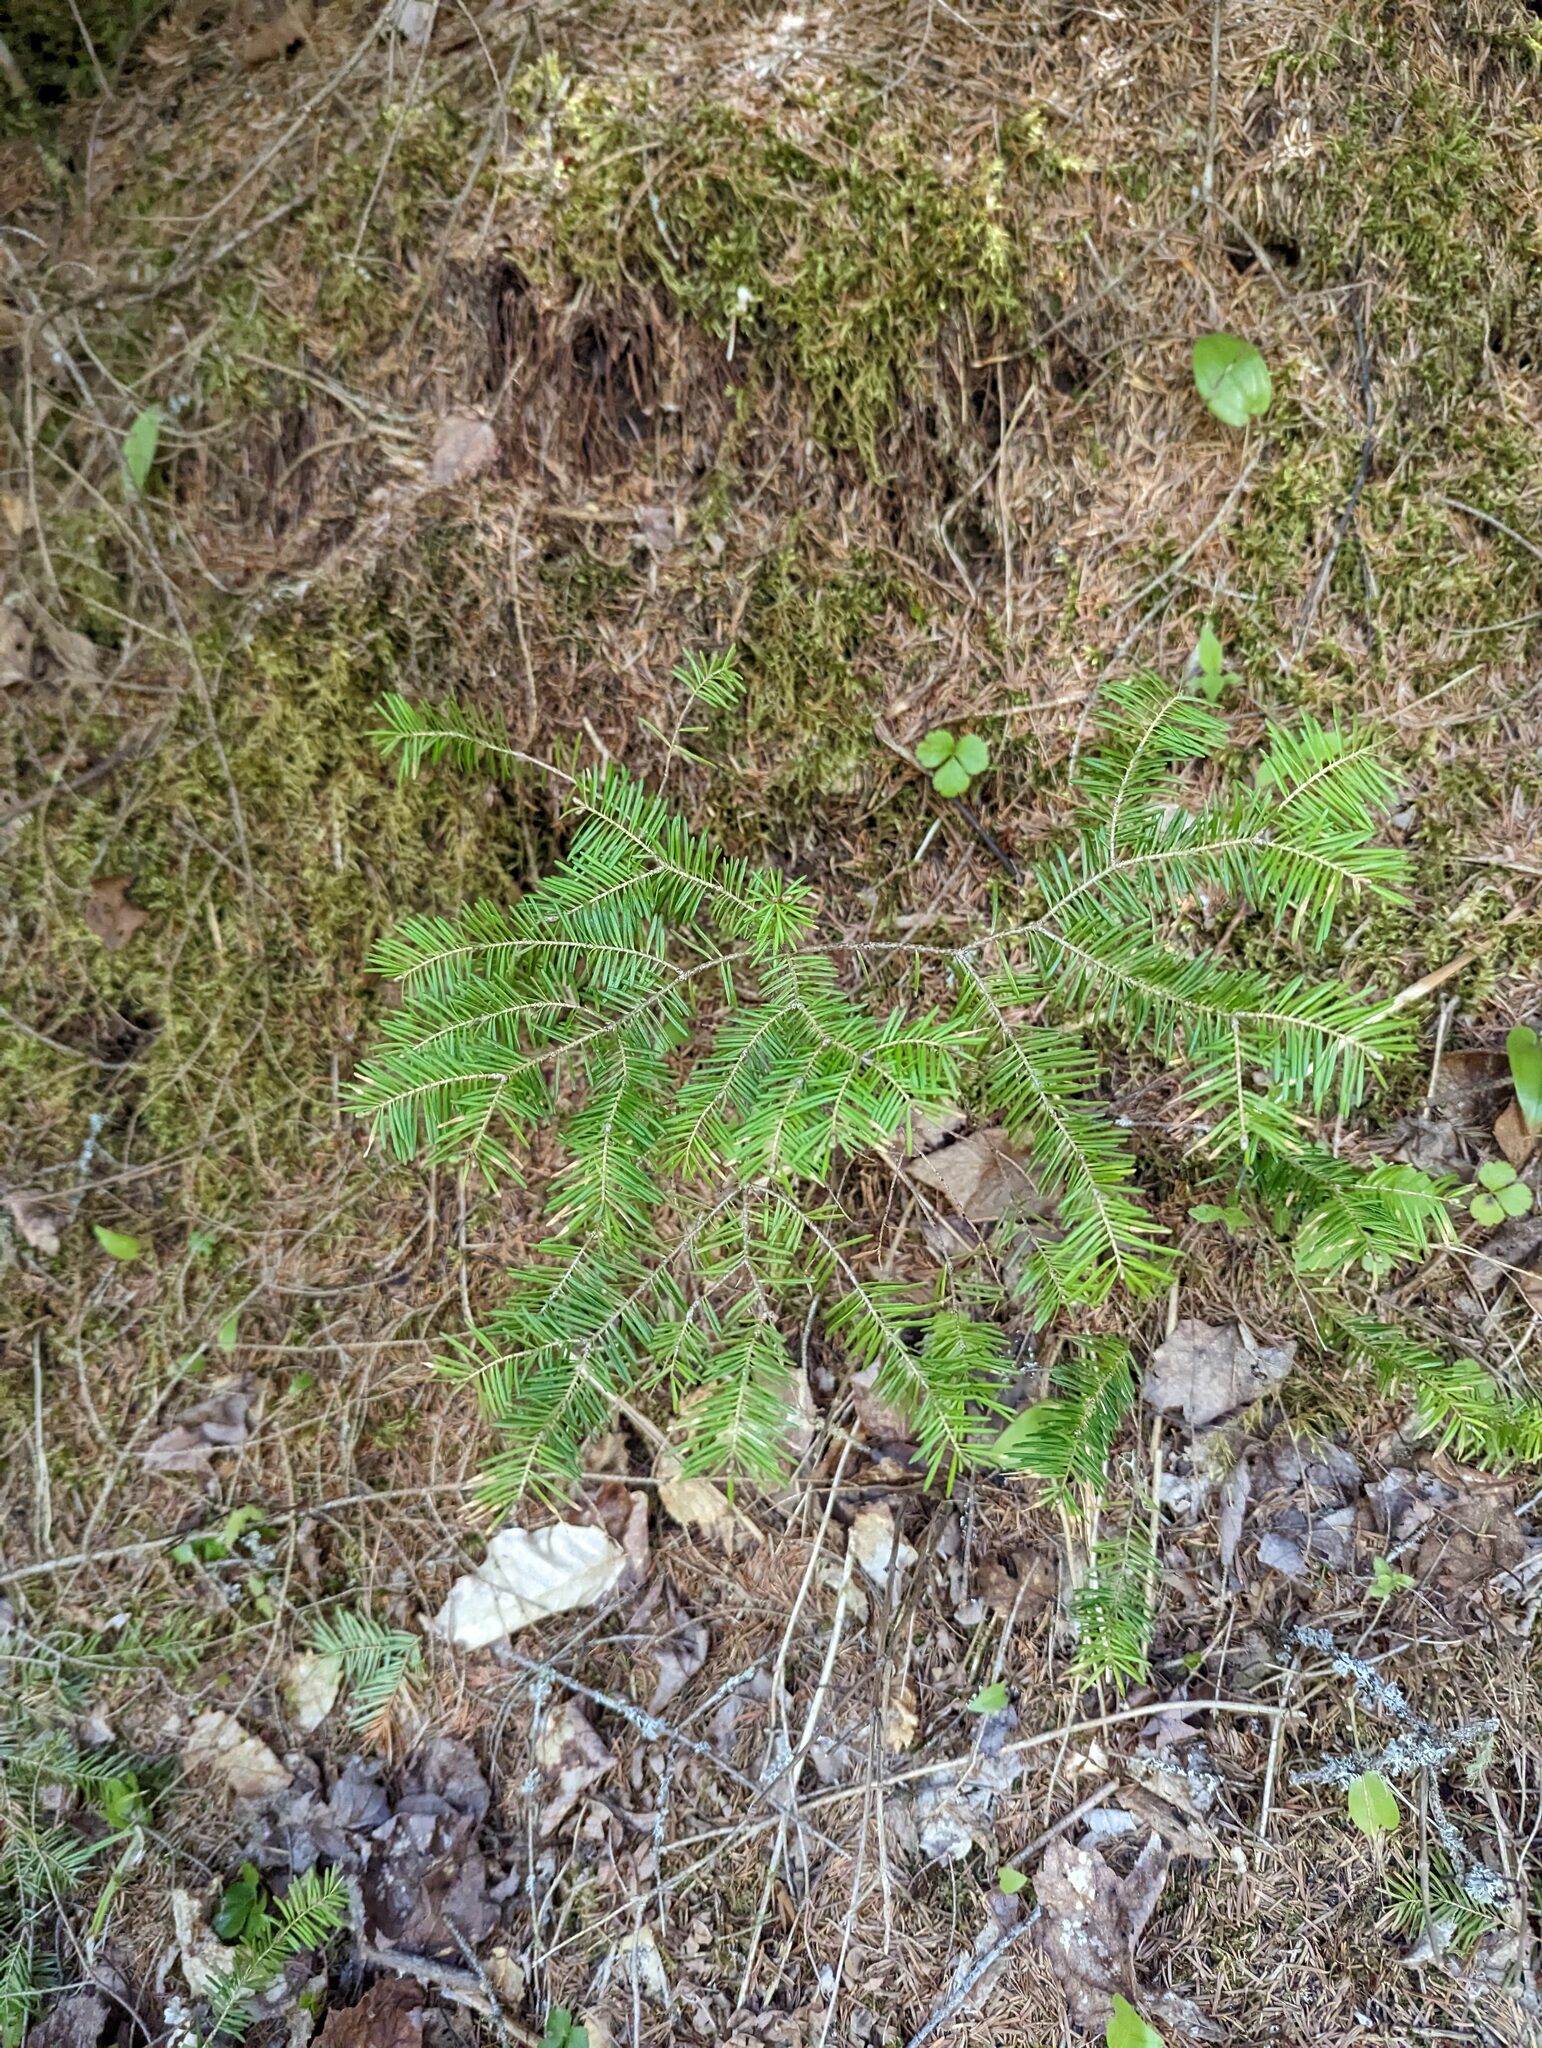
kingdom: Plantae
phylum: Tracheophyta
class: Magnoliopsida
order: Ranunculales
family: Ranunculaceae
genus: Coptis
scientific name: Coptis trifolia
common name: Canker-root
